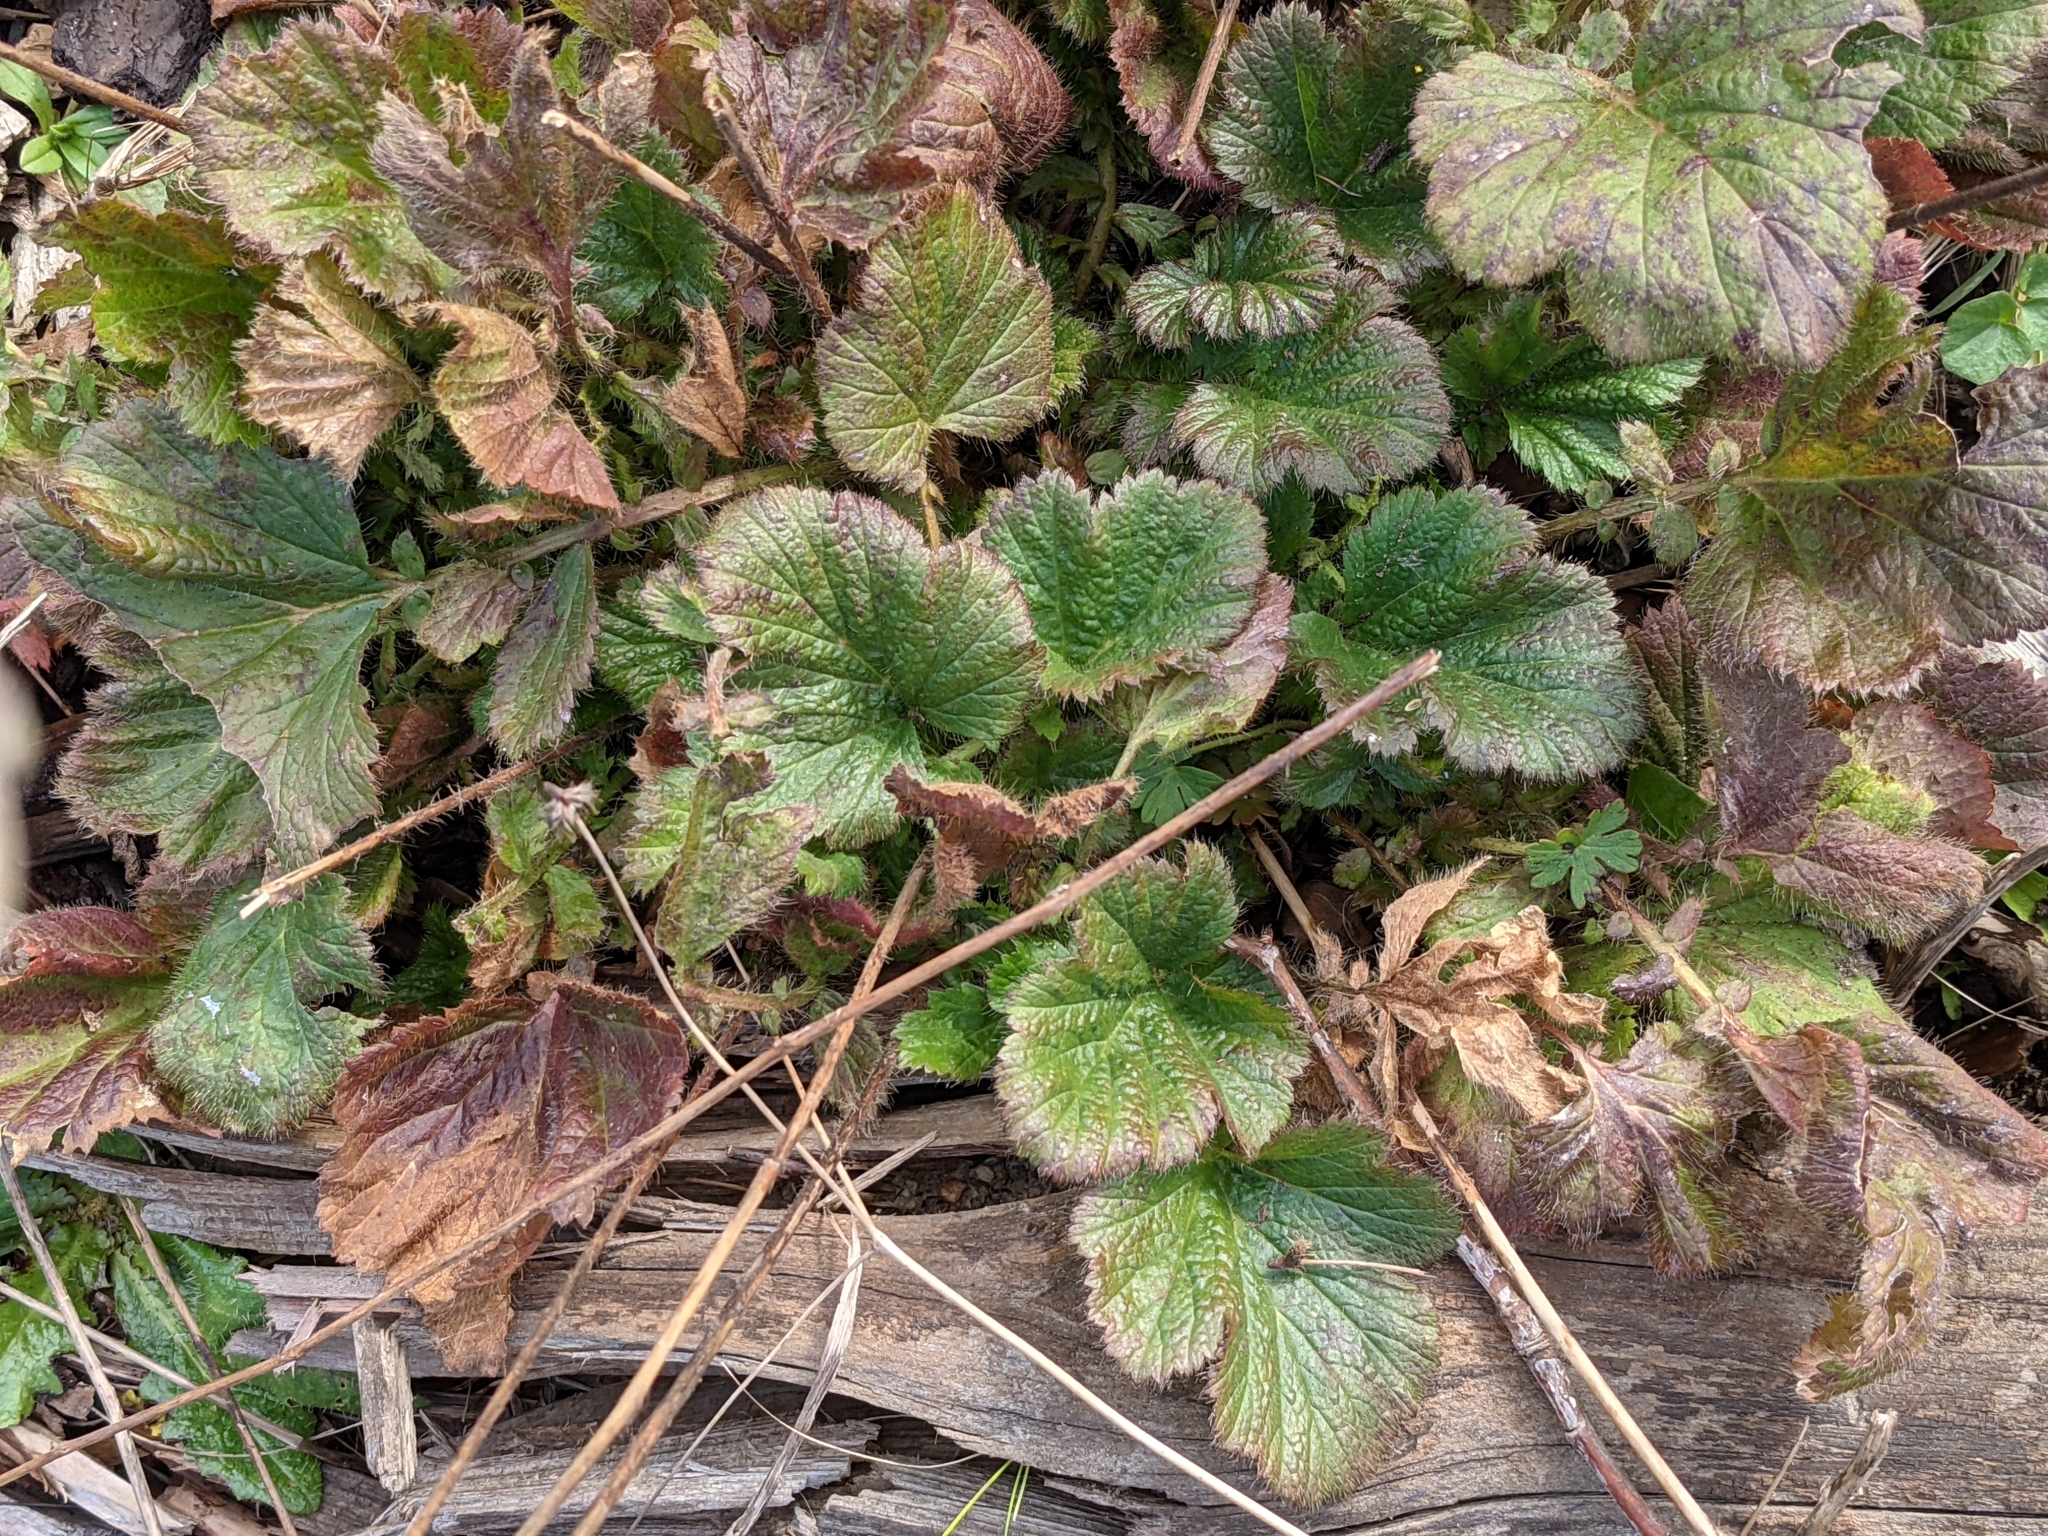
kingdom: Plantae
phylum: Tracheophyta
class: Magnoliopsida
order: Rosales
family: Rosaceae
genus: Geum
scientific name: Geum macrophyllum
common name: Large-leaved avens
